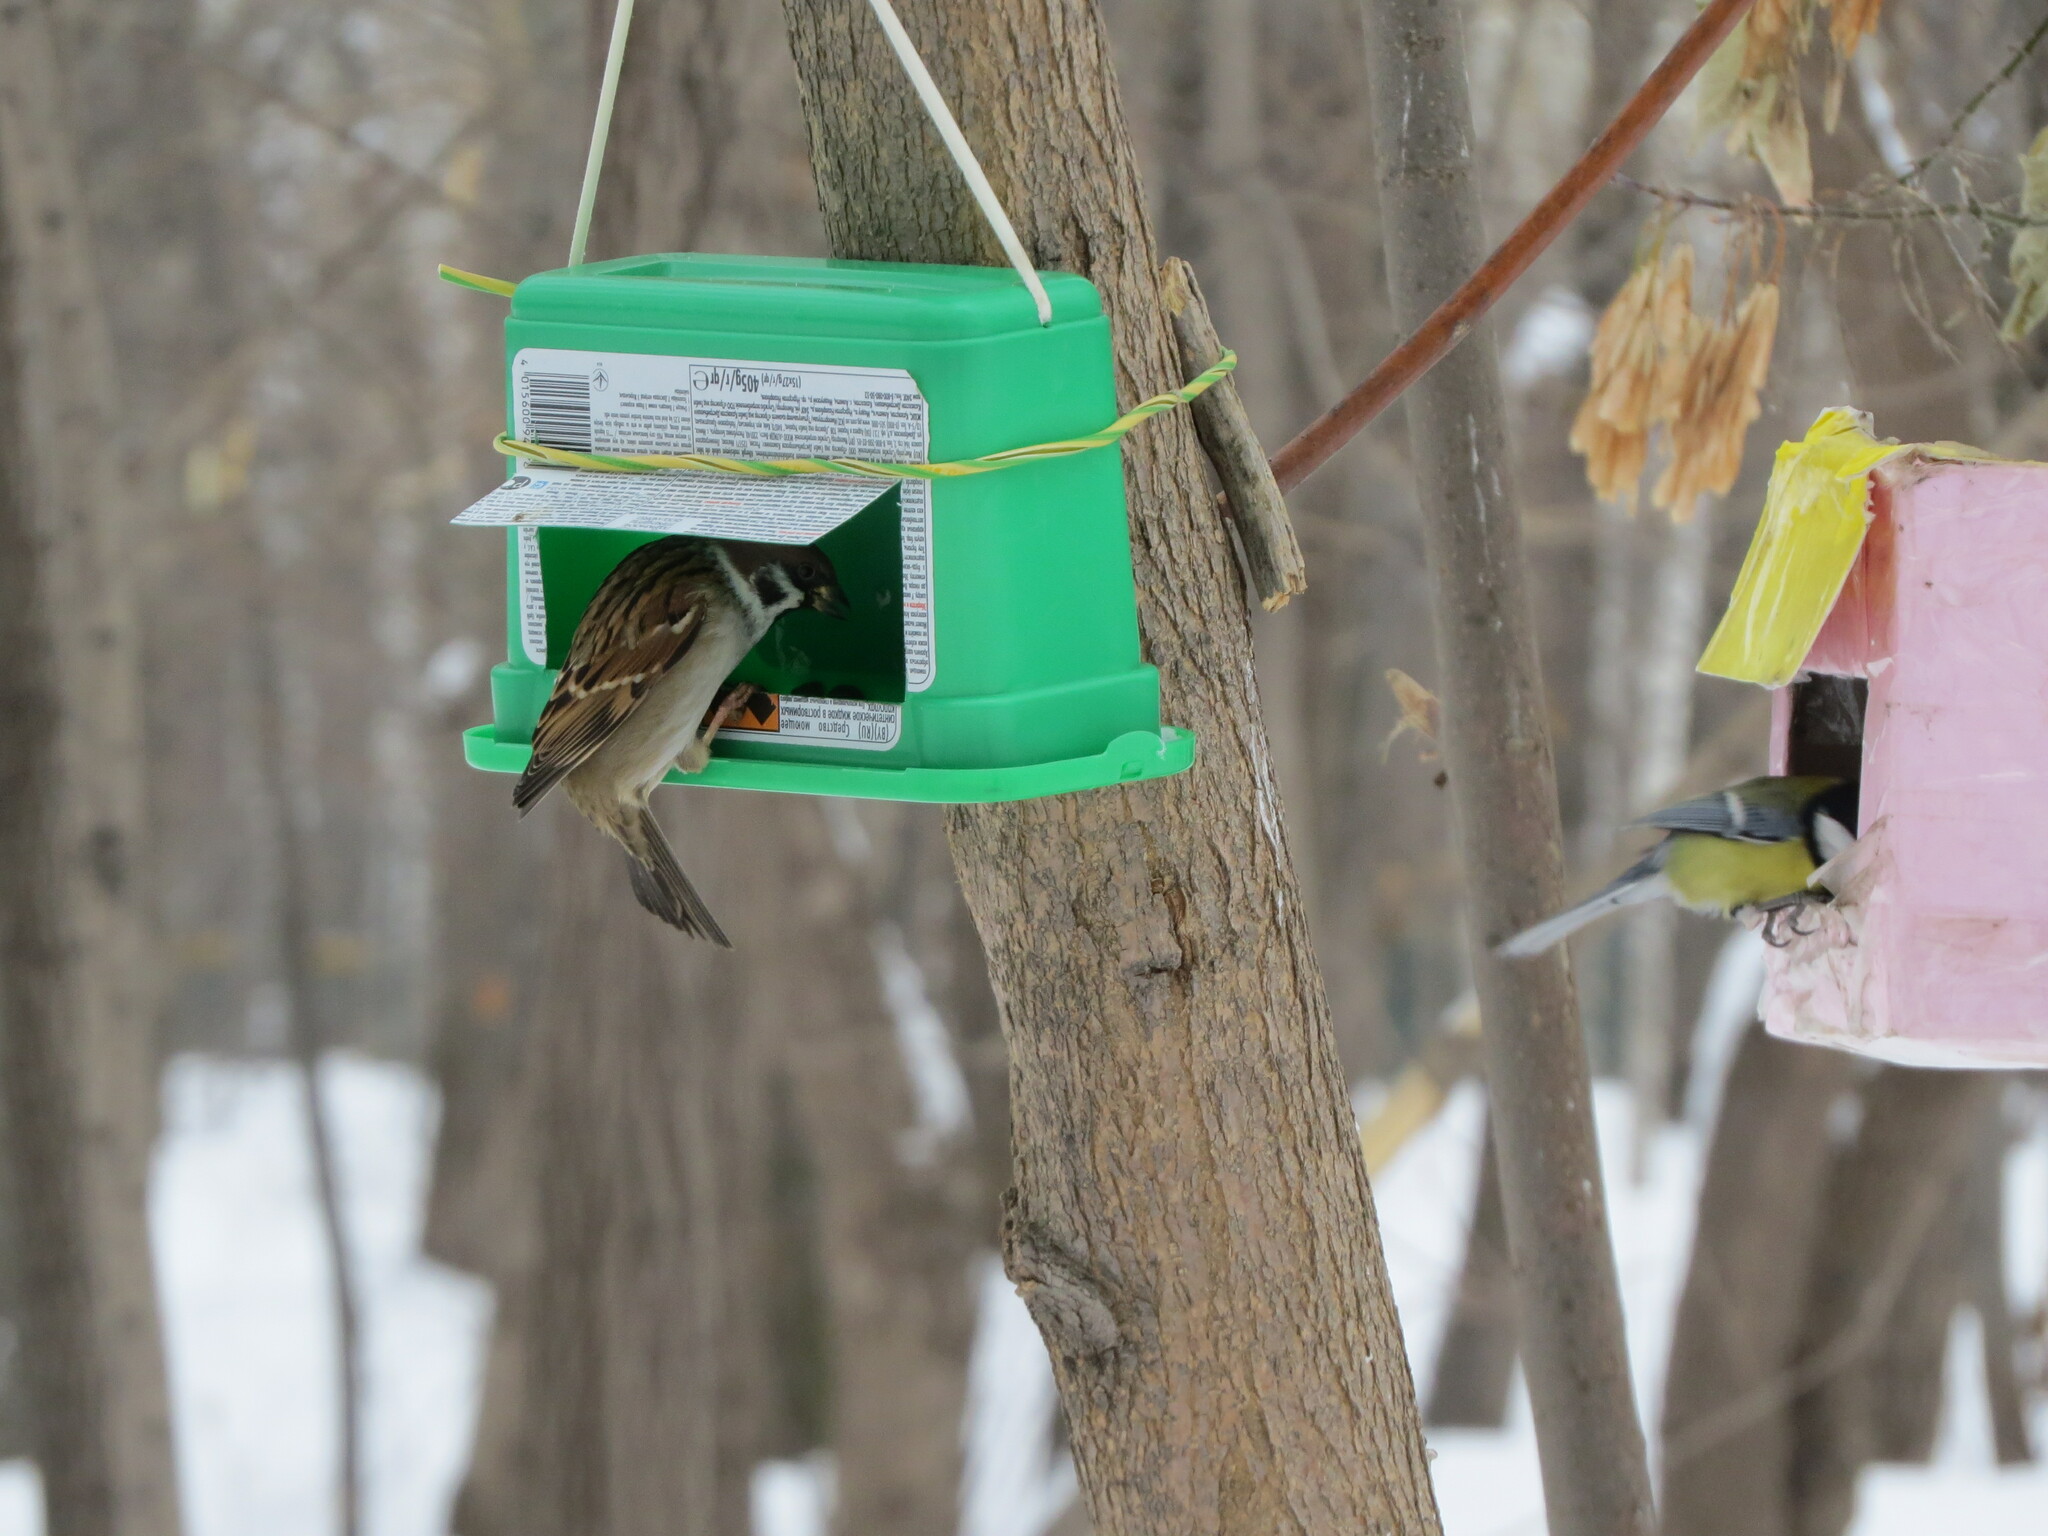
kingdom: Animalia
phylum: Chordata
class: Aves
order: Passeriformes
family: Passeridae
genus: Passer
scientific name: Passer montanus
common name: Eurasian tree sparrow
